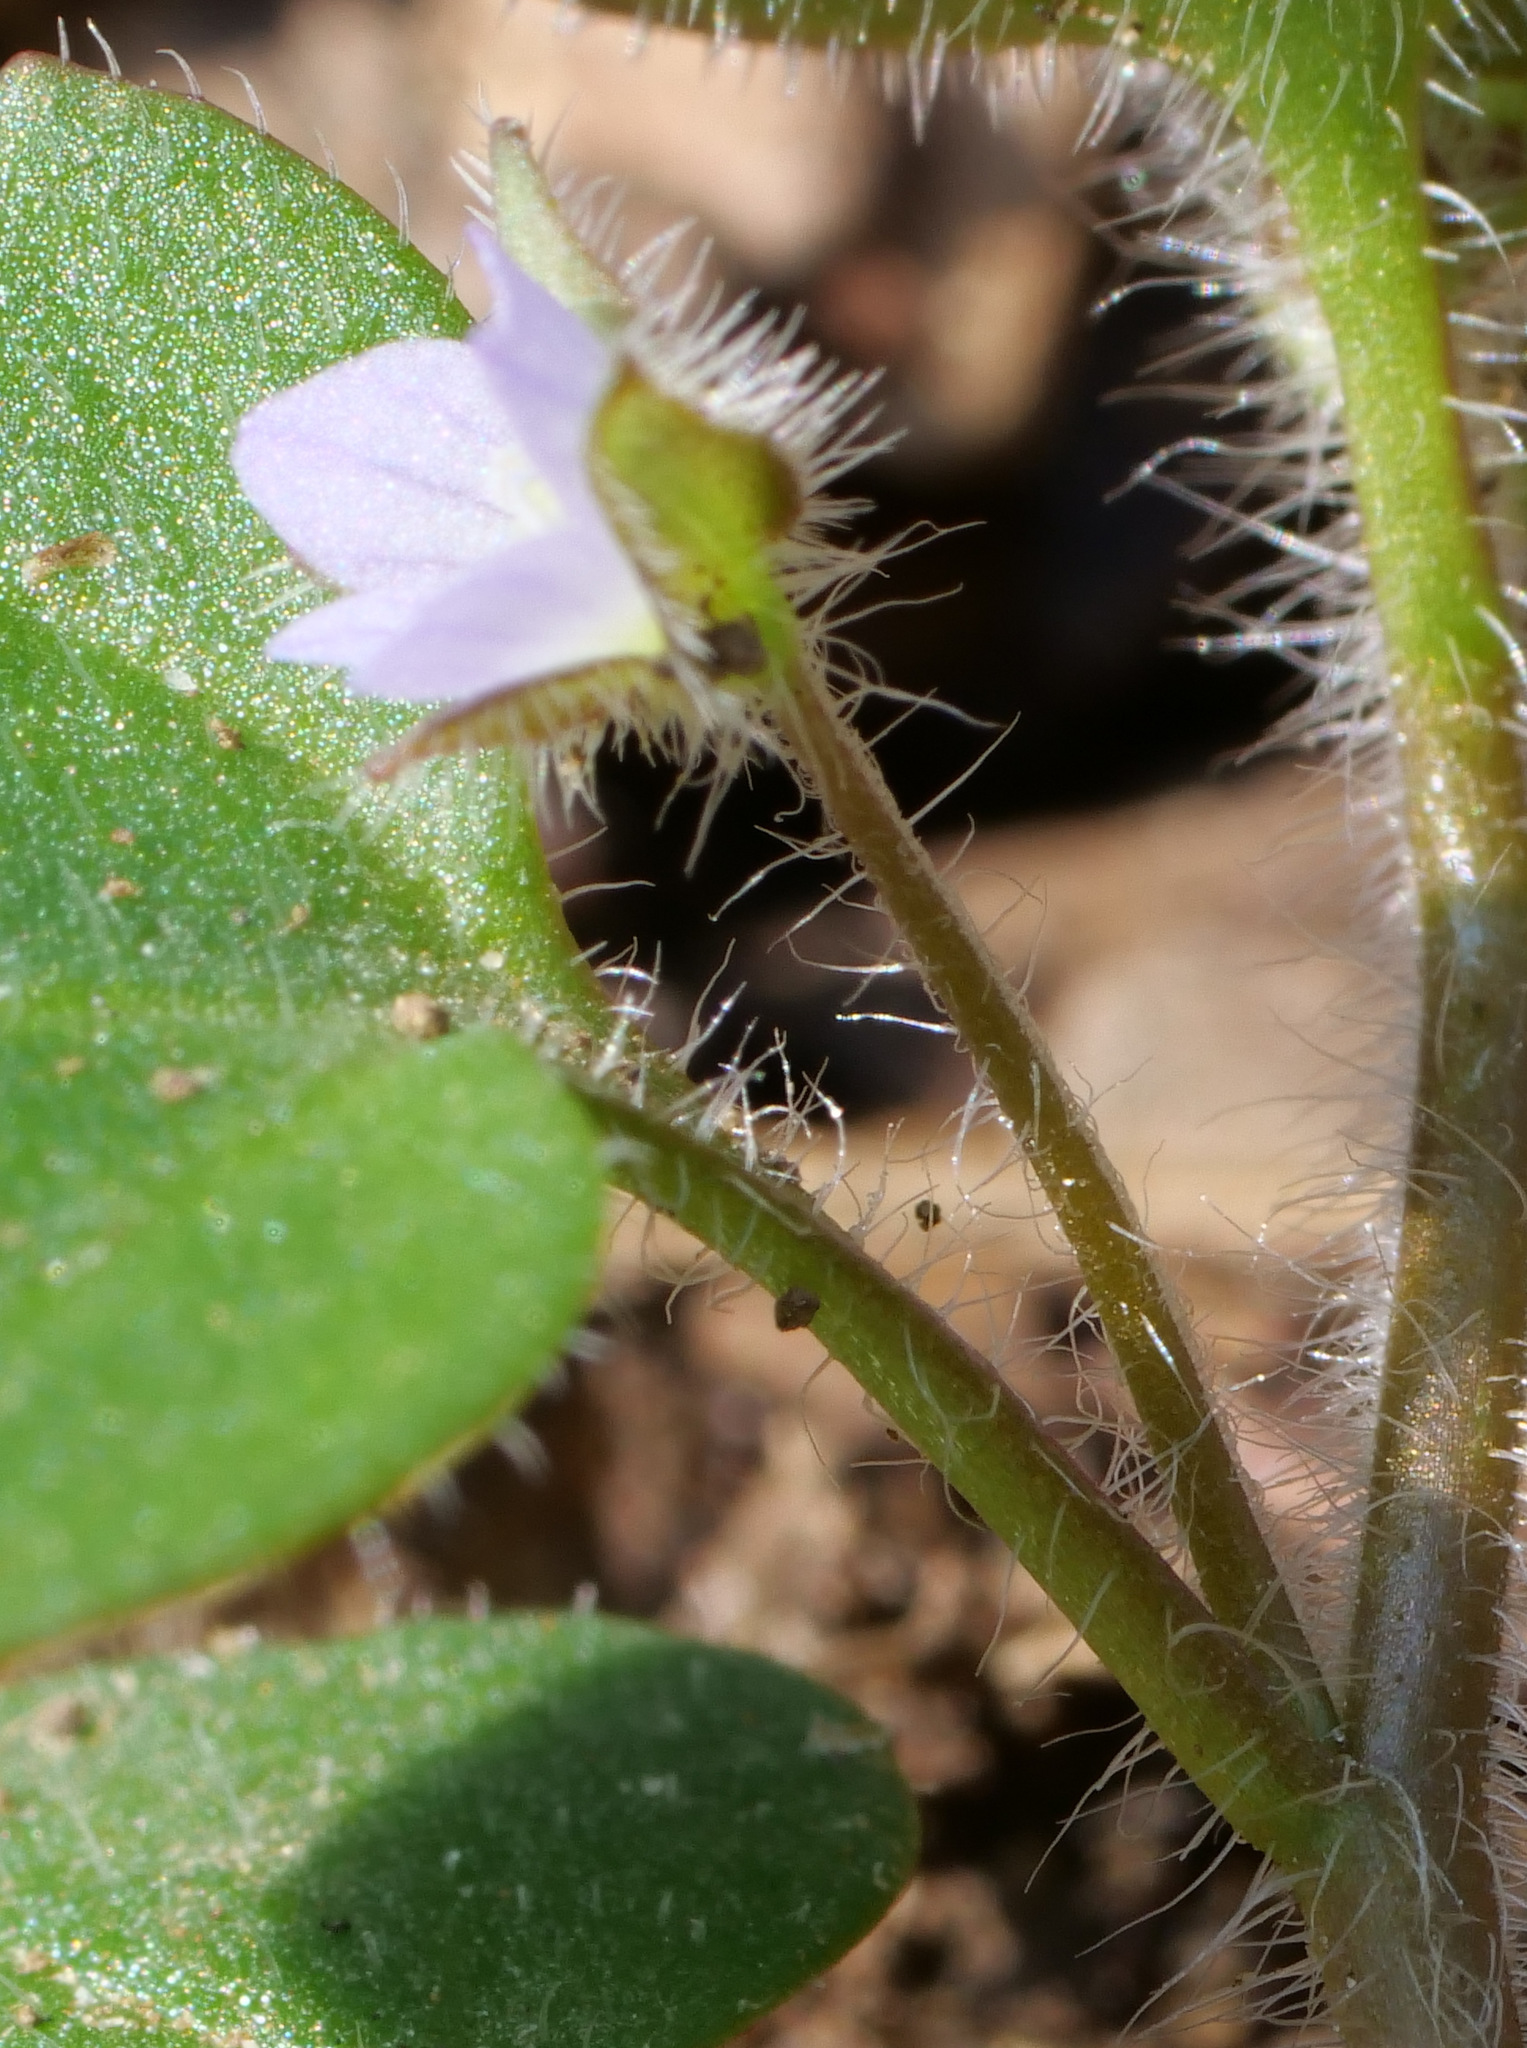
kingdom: Plantae
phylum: Tracheophyta
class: Magnoliopsida
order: Lamiales
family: Plantaginaceae
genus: Veronica
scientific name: Veronica sublobata
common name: False ivy-leaved speedwell
